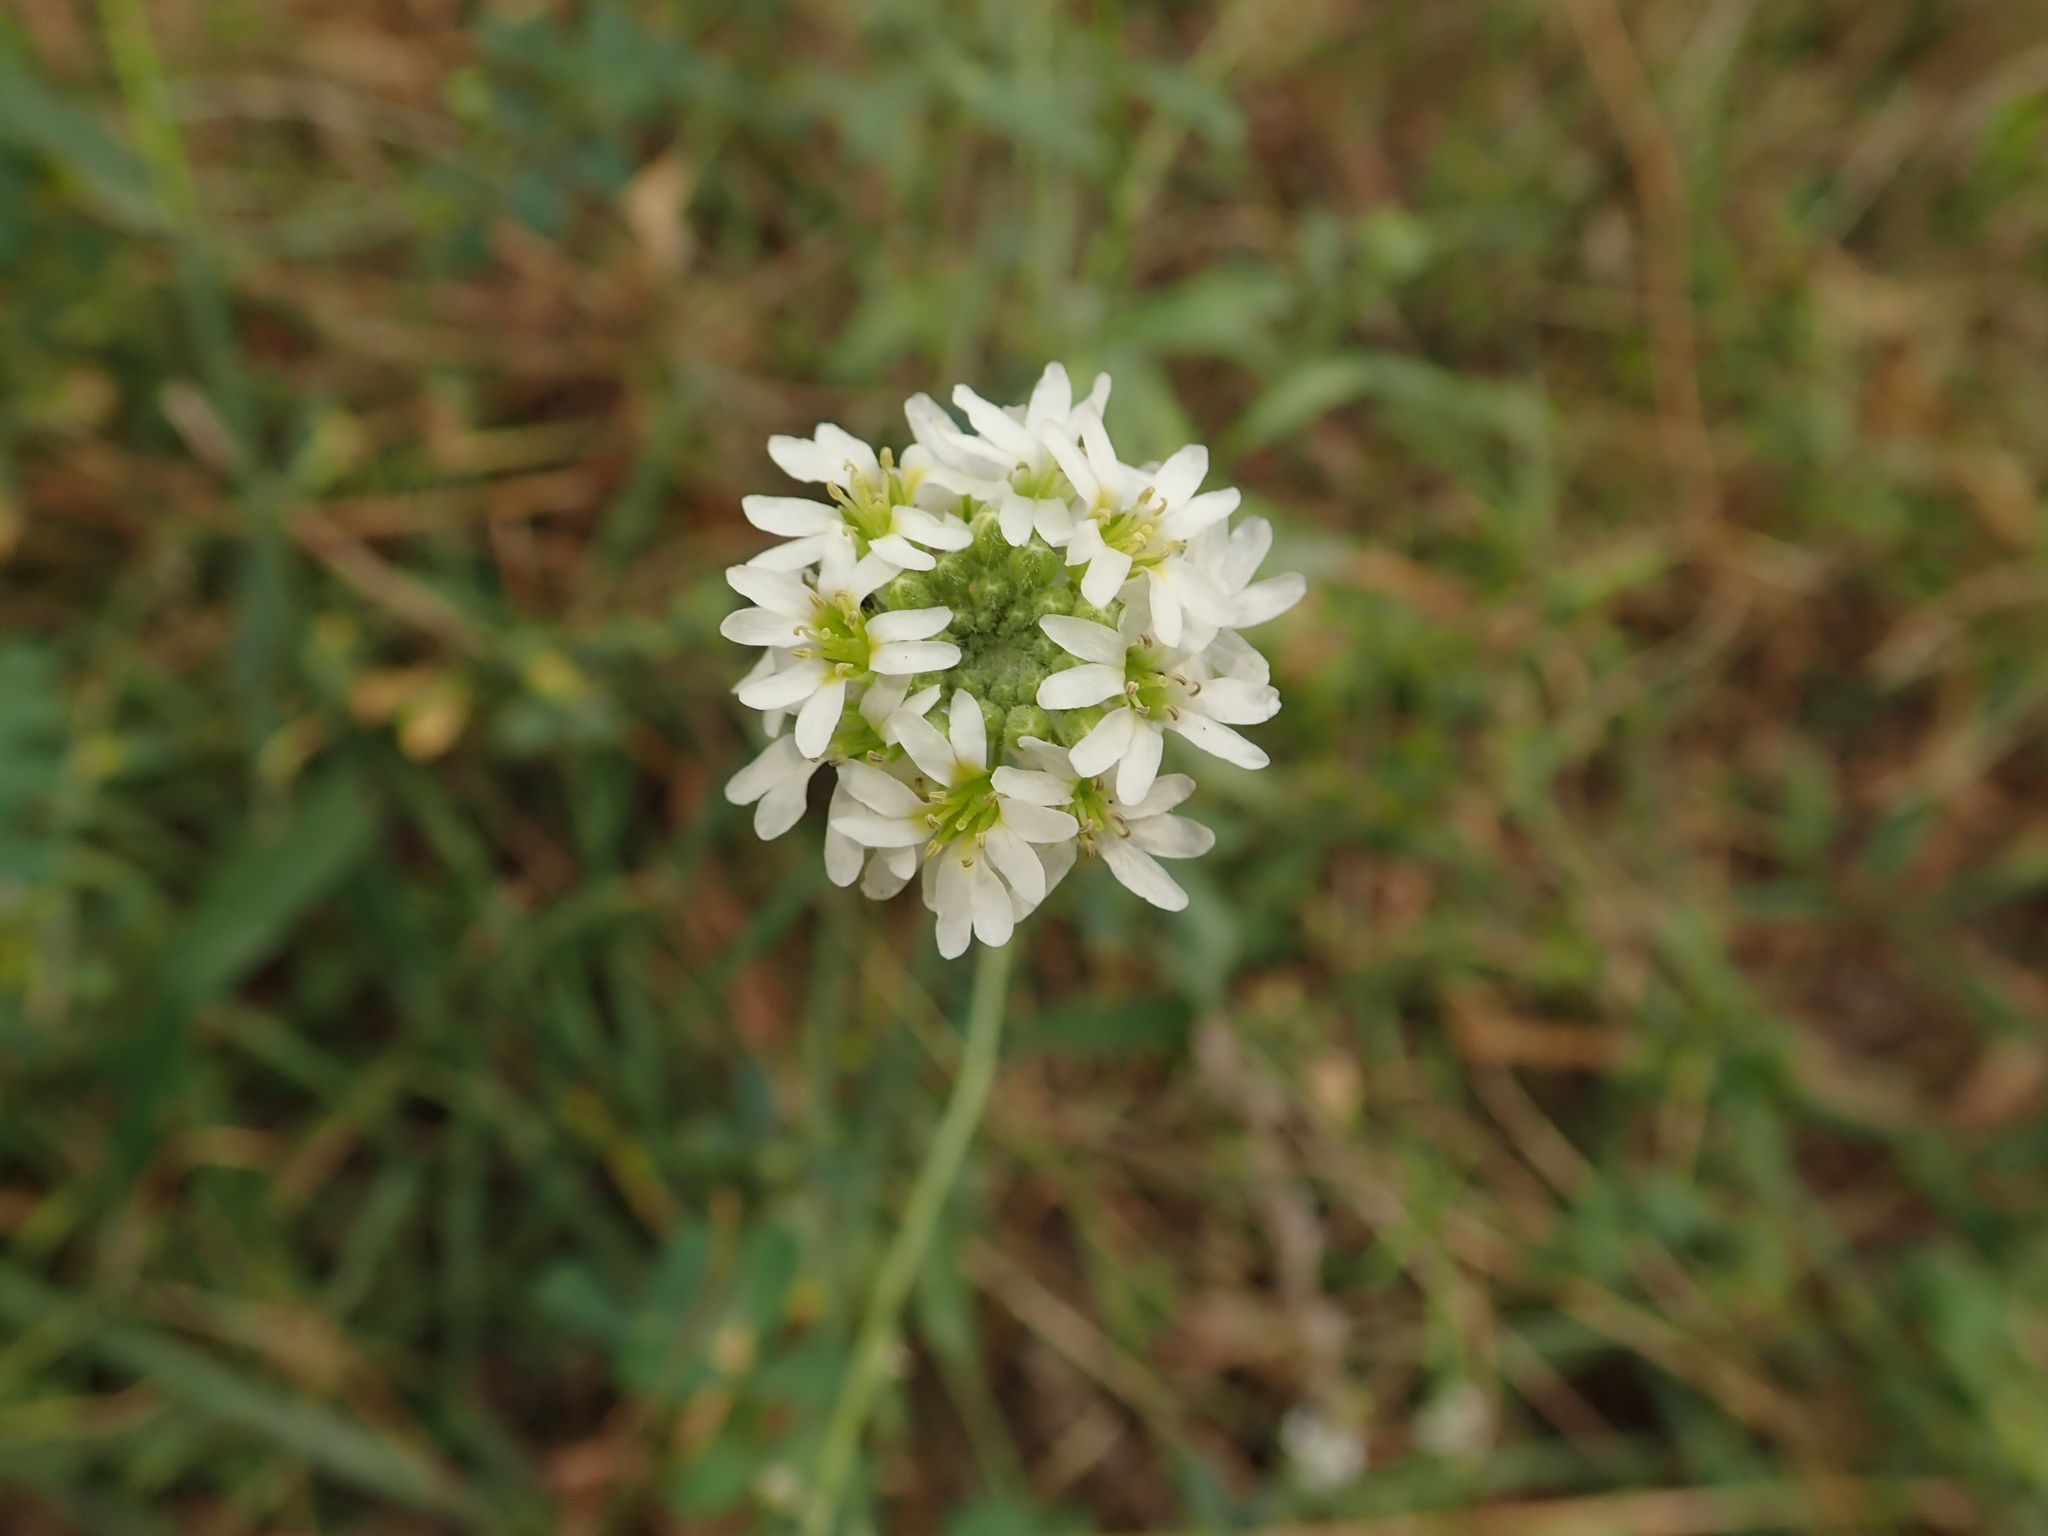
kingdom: Plantae
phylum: Tracheophyta
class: Magnoliopsida
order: Brassicales
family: Brassicaceae
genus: Berteroa
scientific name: Berteroa incana
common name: Hoary alison
